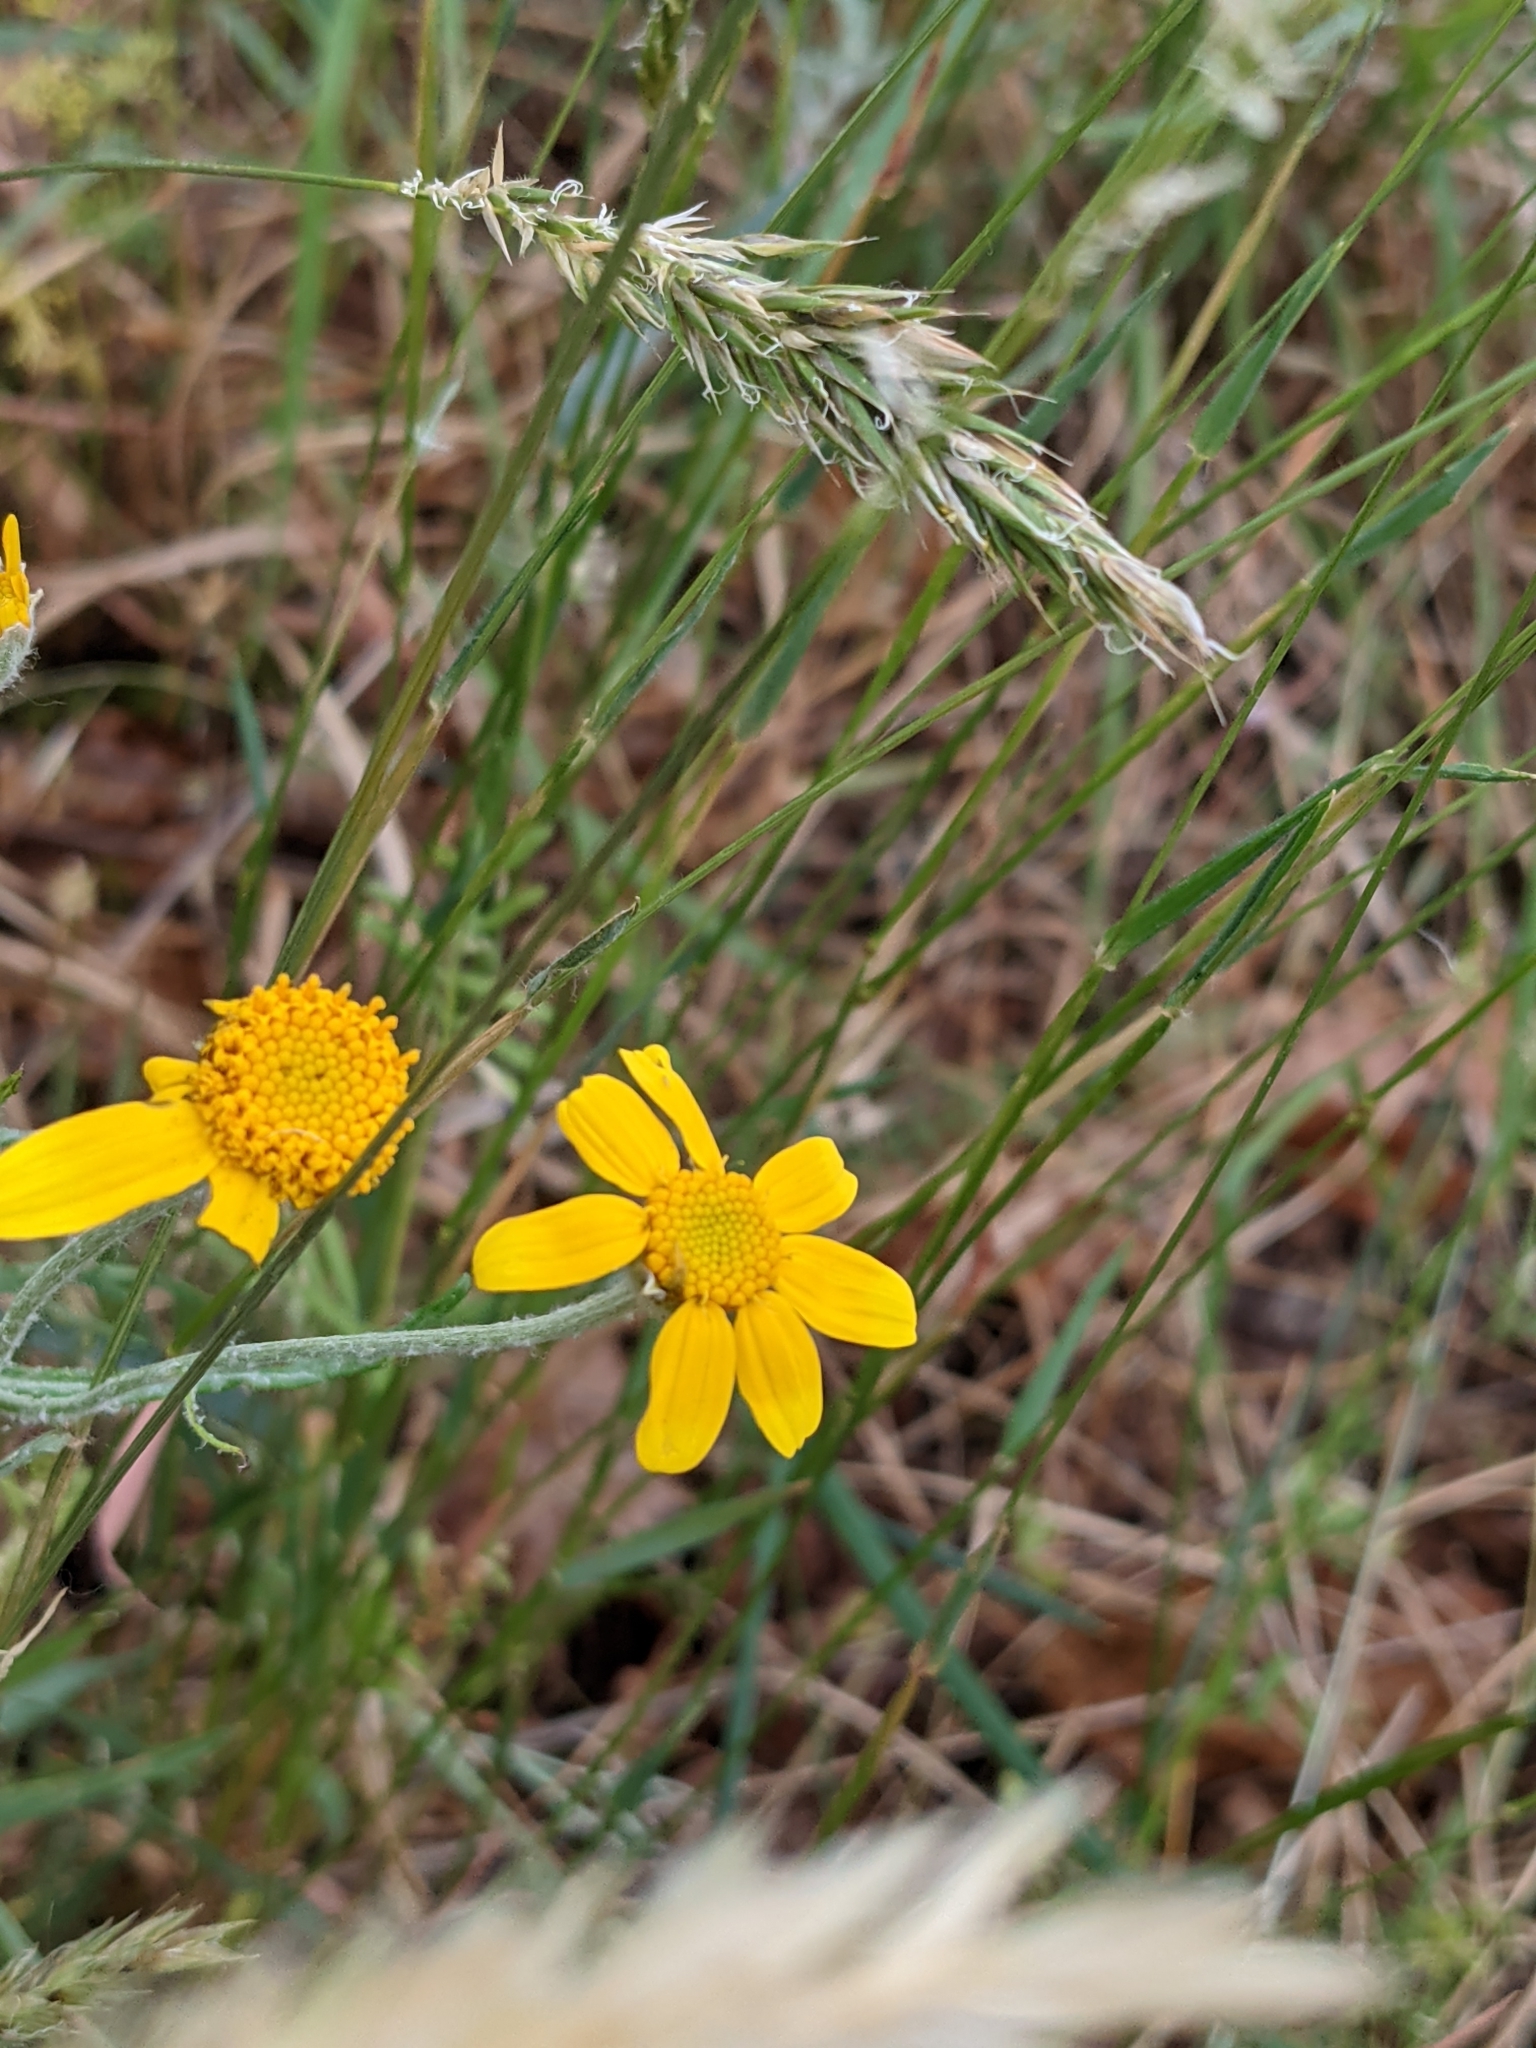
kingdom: Plantae
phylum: Tracheophyta
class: Magnoliopsida
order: Asterales
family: Asteraceae
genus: Eriophyllum
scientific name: Eriophyllum lanatum
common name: Common woolly-sunflower
